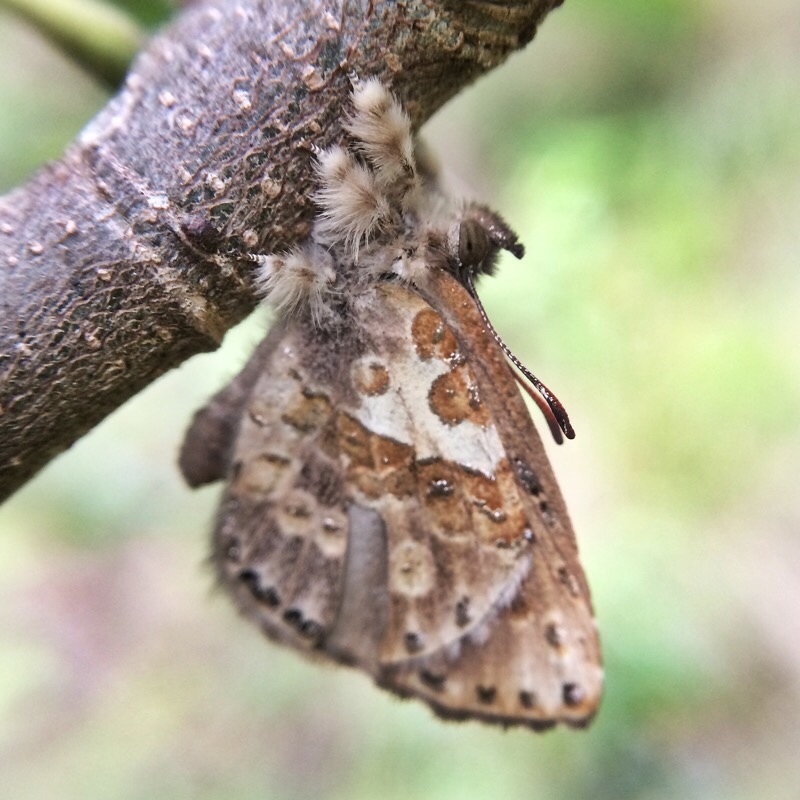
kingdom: Animalia
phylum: Arthropoda
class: Insecta
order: Lepidoptera
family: Lycaenidae
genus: Lachnocnema
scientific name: Lachnocnema bibulus
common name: Common woolly legs
